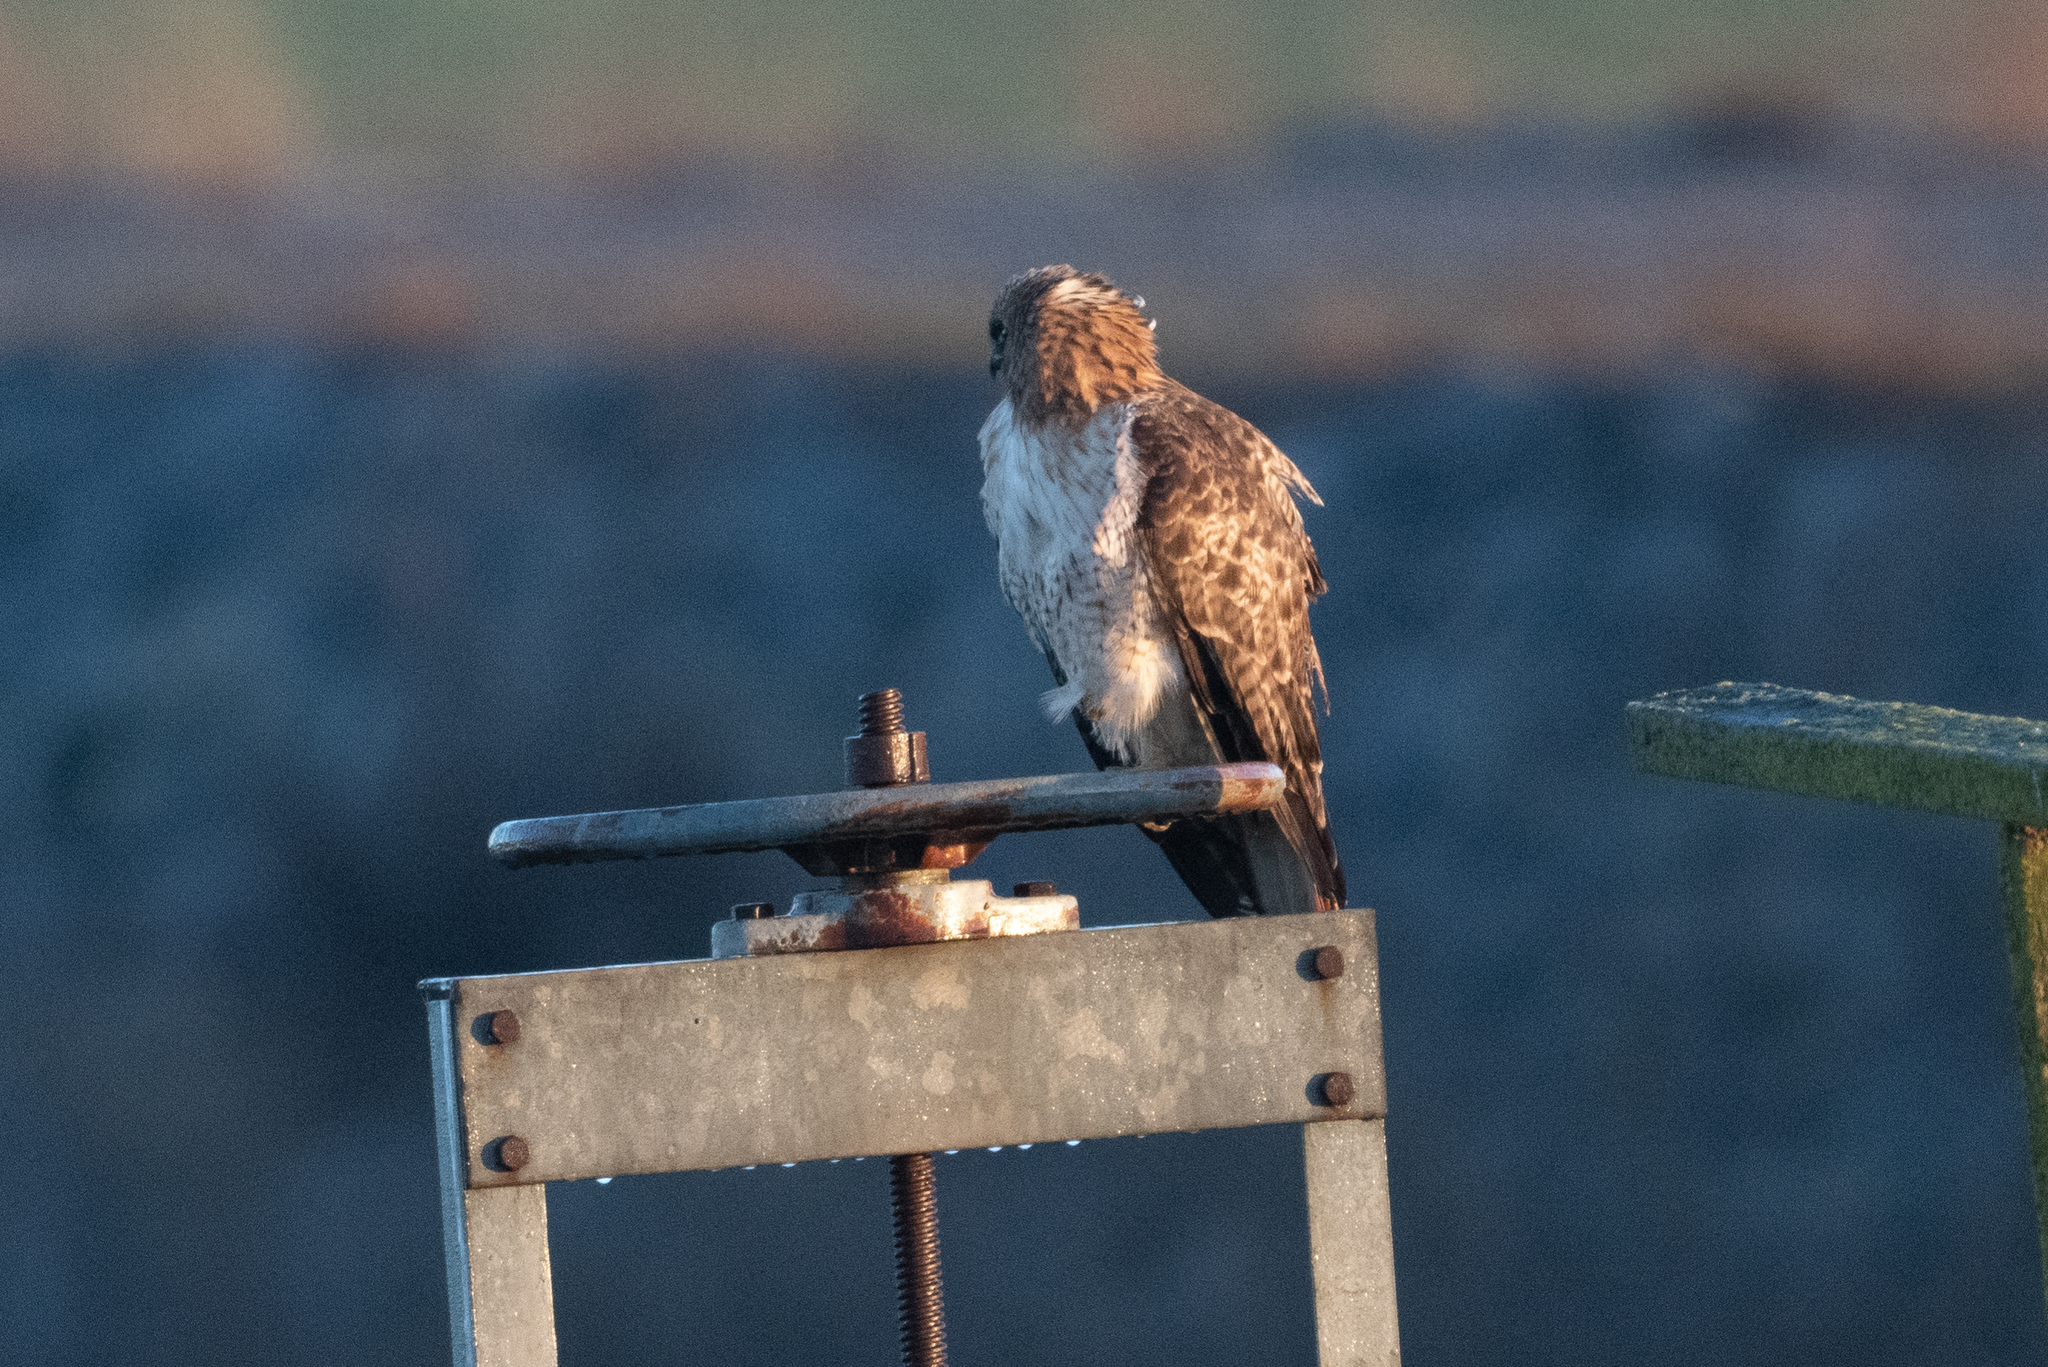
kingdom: Animalia
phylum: Chordata
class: Aves
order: Accipitriformes
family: Accipitridae
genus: Buteo
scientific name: Buteo jamaicensis
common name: Red-tailed hawk
